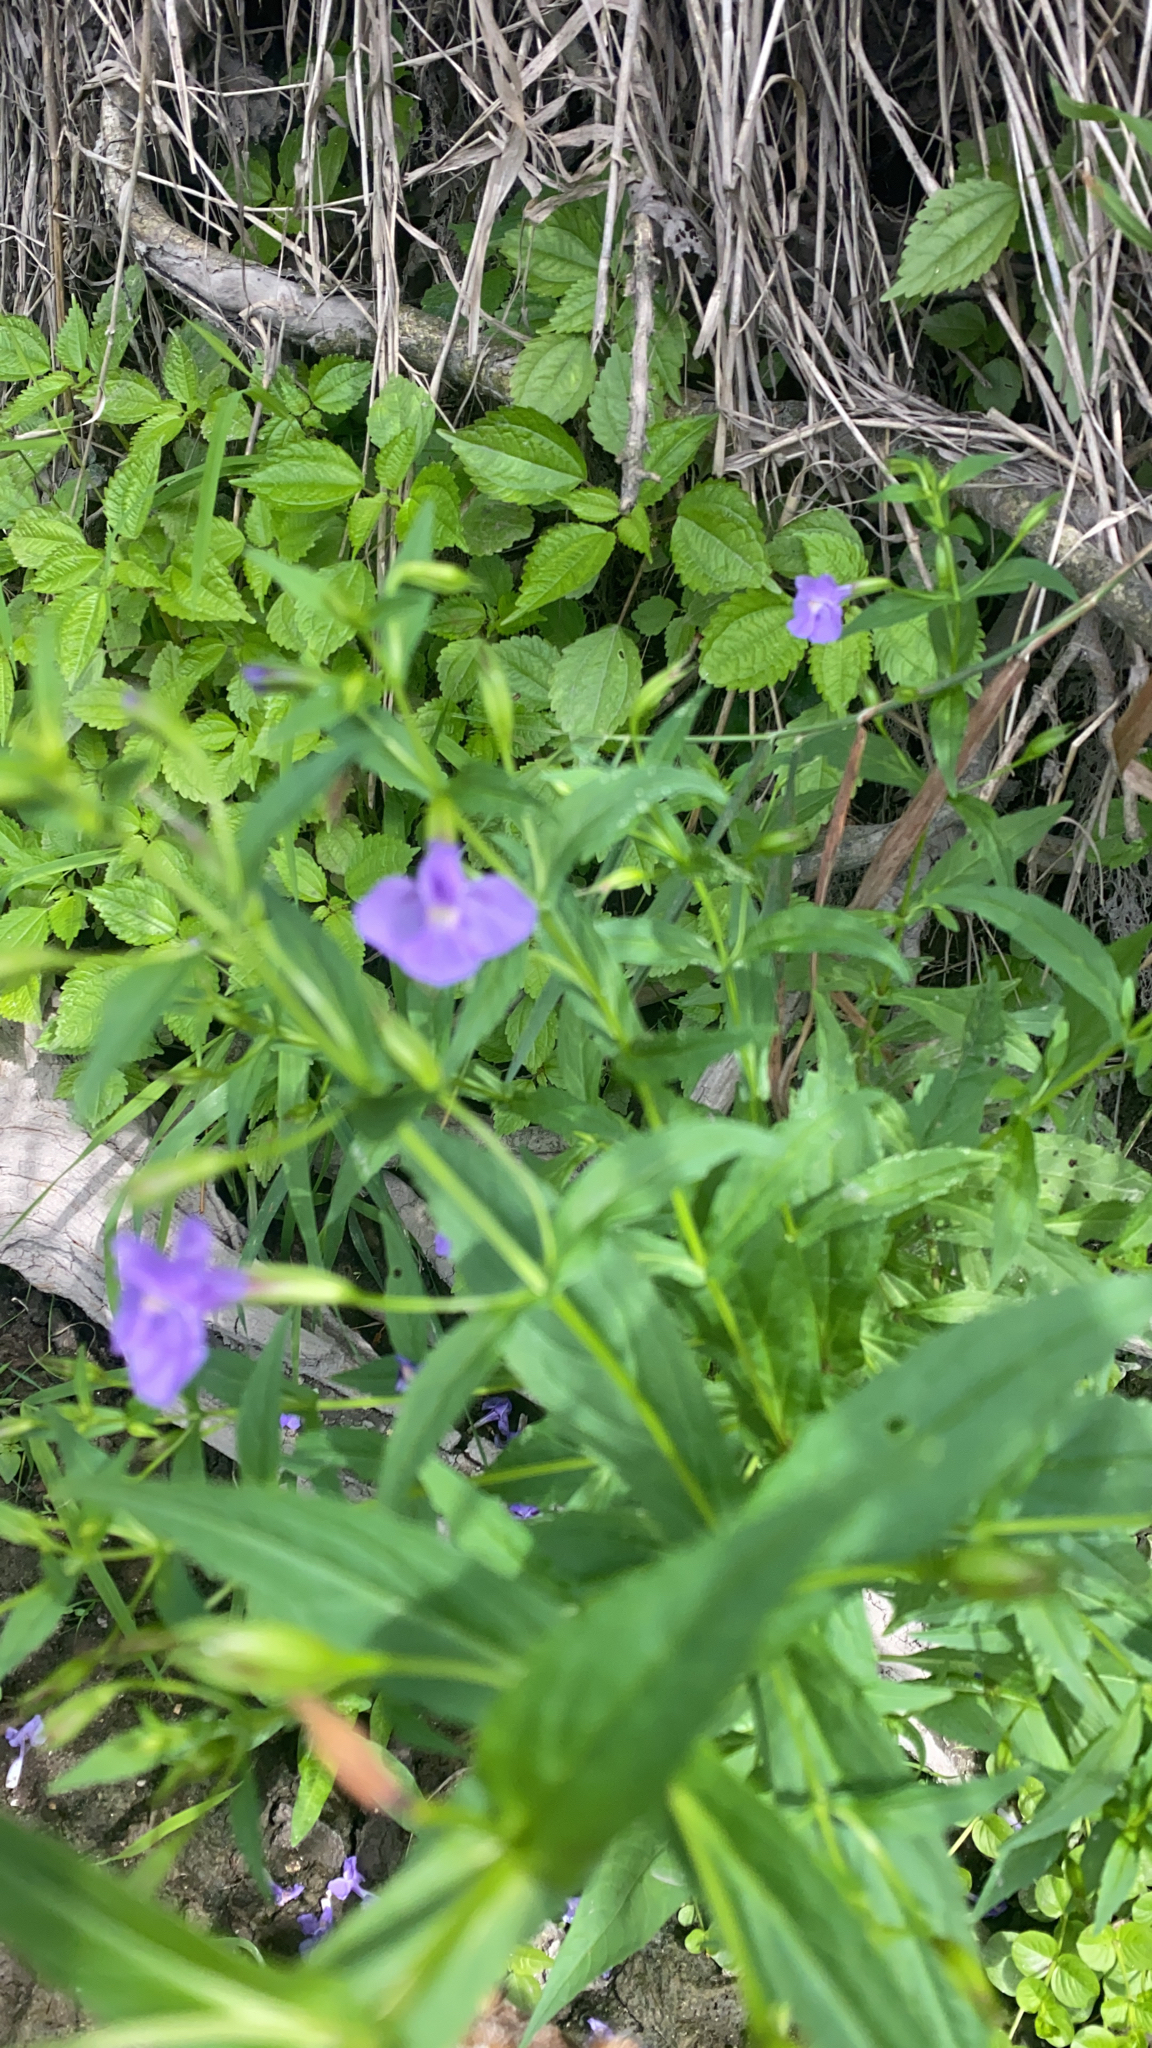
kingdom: Plantae
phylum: Tracheophyta
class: Magnoliopsida
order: Lamiales
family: Phrymaceae
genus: Mimulus
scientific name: Mimulus ringens
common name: Allegheny monkeyflower
